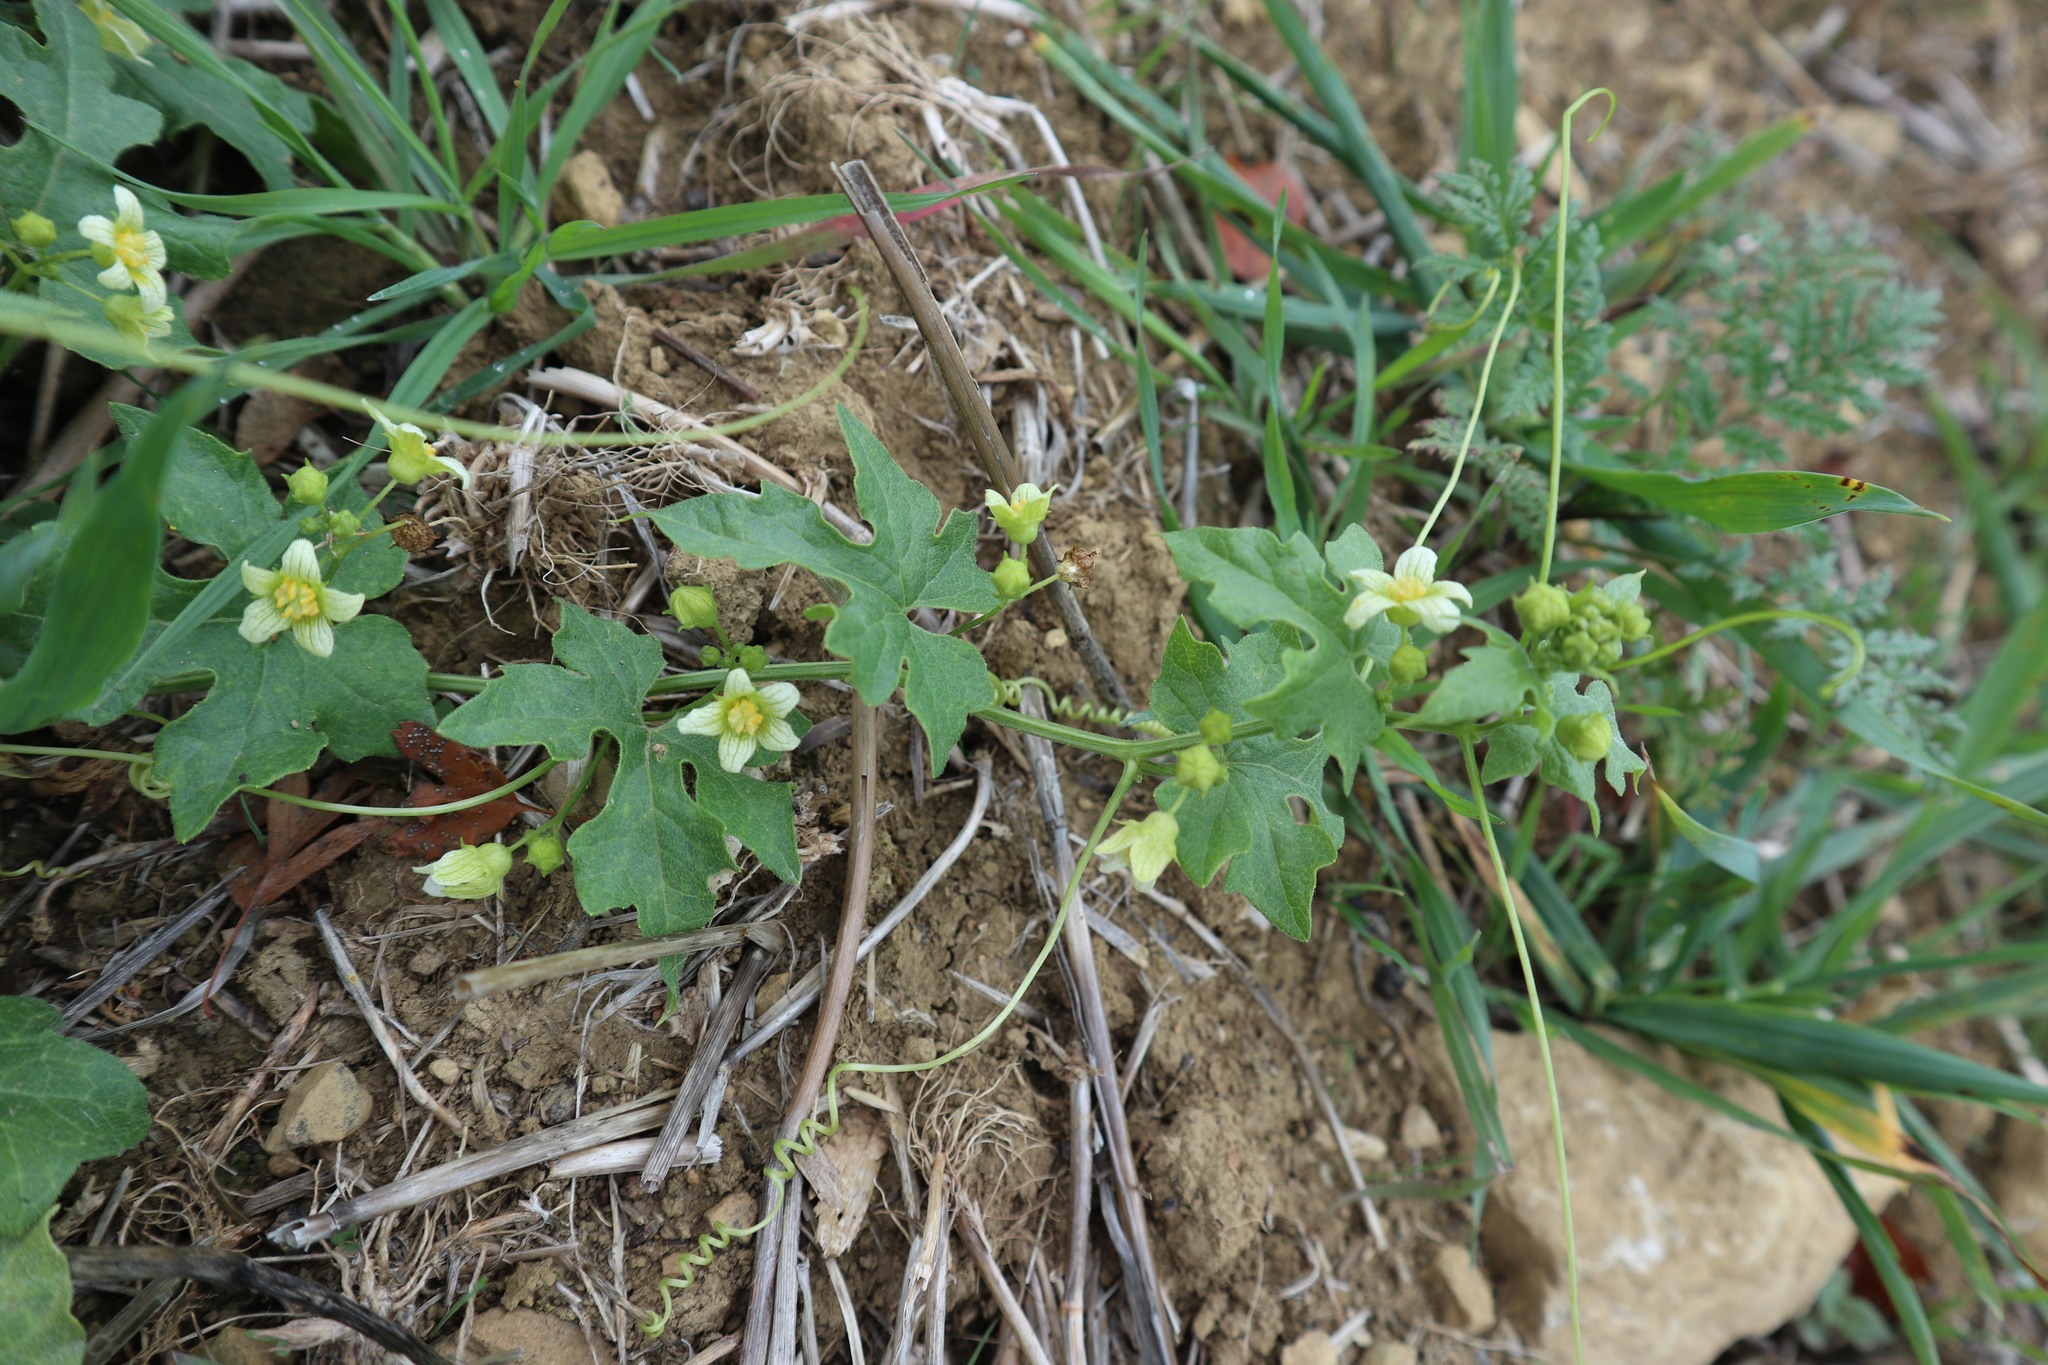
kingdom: Plantae
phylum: Tracheophyta
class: Magnoliopsida
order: Cucurbitales
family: Cucurbitaceae
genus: Bryonia
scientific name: Bryonia cretica
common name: Cretan bryony
